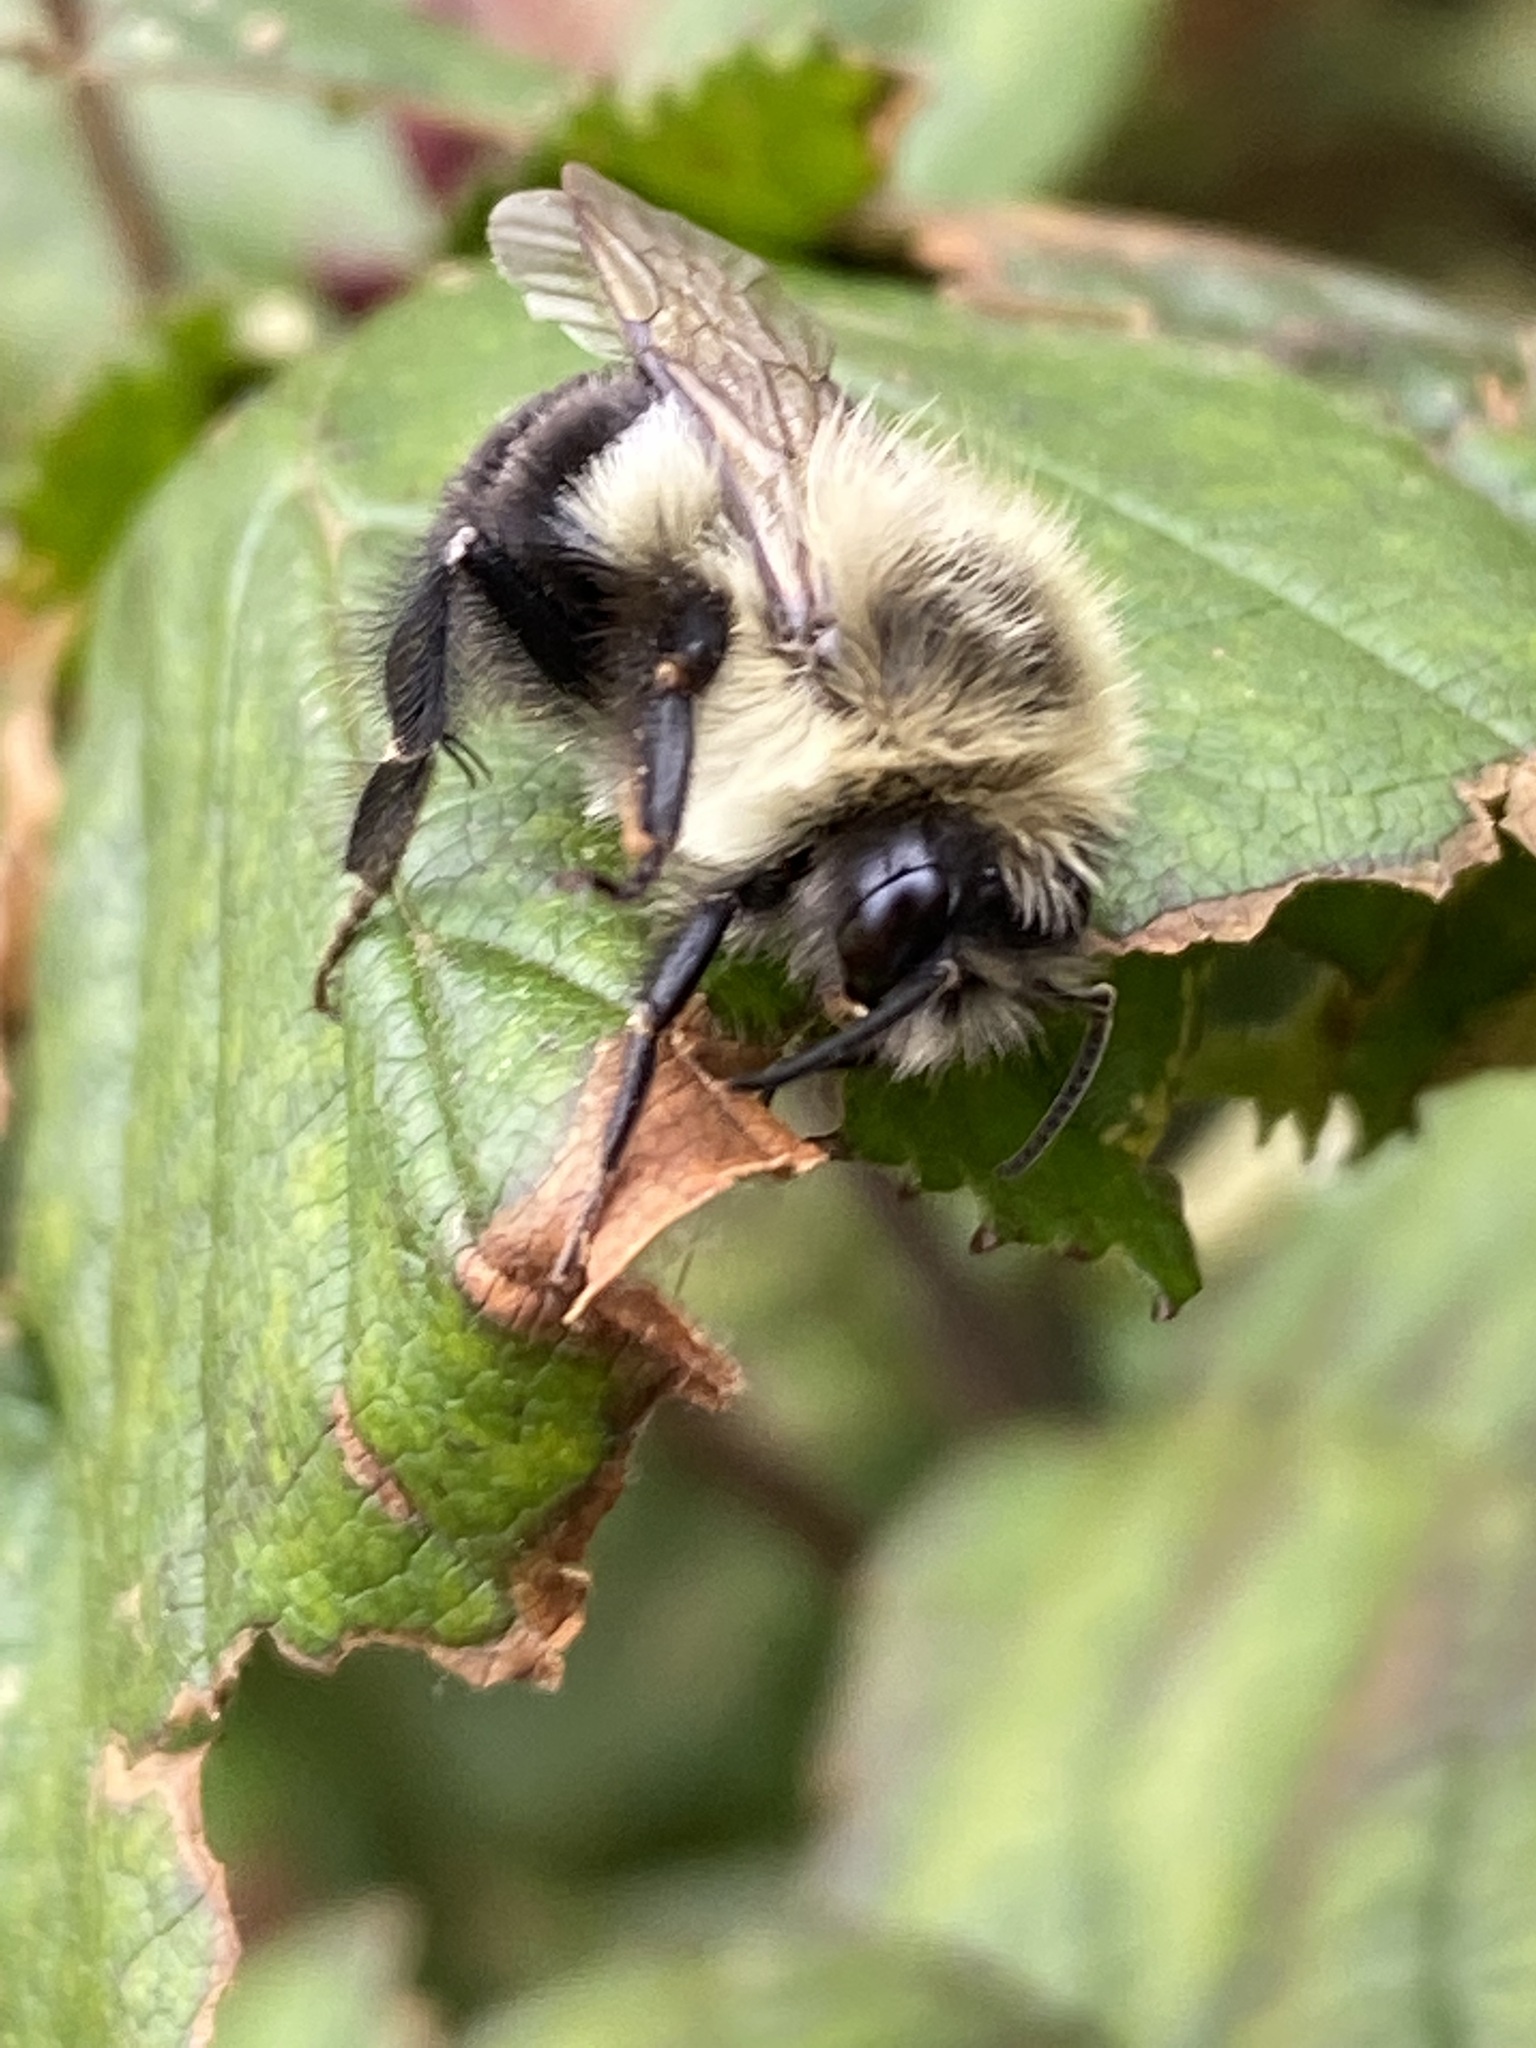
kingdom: Animalia
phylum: Arthropoda
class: Insecta
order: Hymenoptera
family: Apidae
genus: Bombus
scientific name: Bombus impatiens
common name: Common eastern bumble bee
